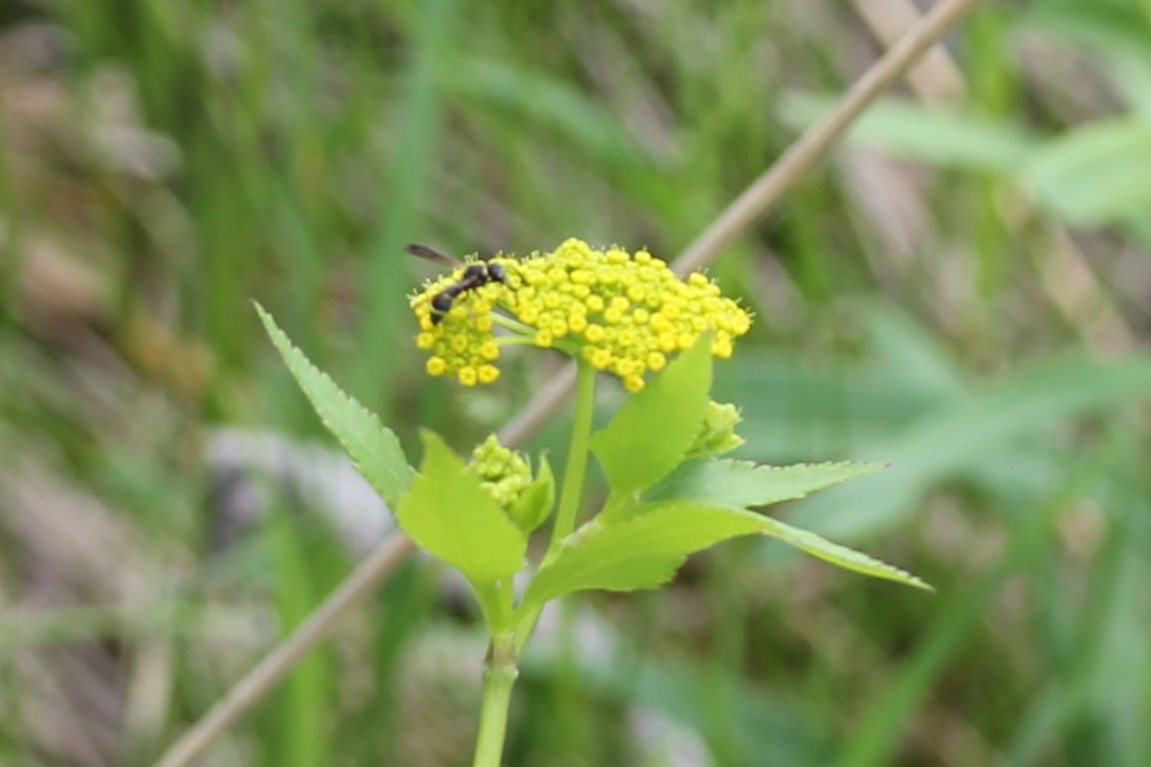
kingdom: Animalia
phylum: Arthropoda
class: Insecta
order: Hymenoptera
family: Eumenidae
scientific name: Eumenidae
